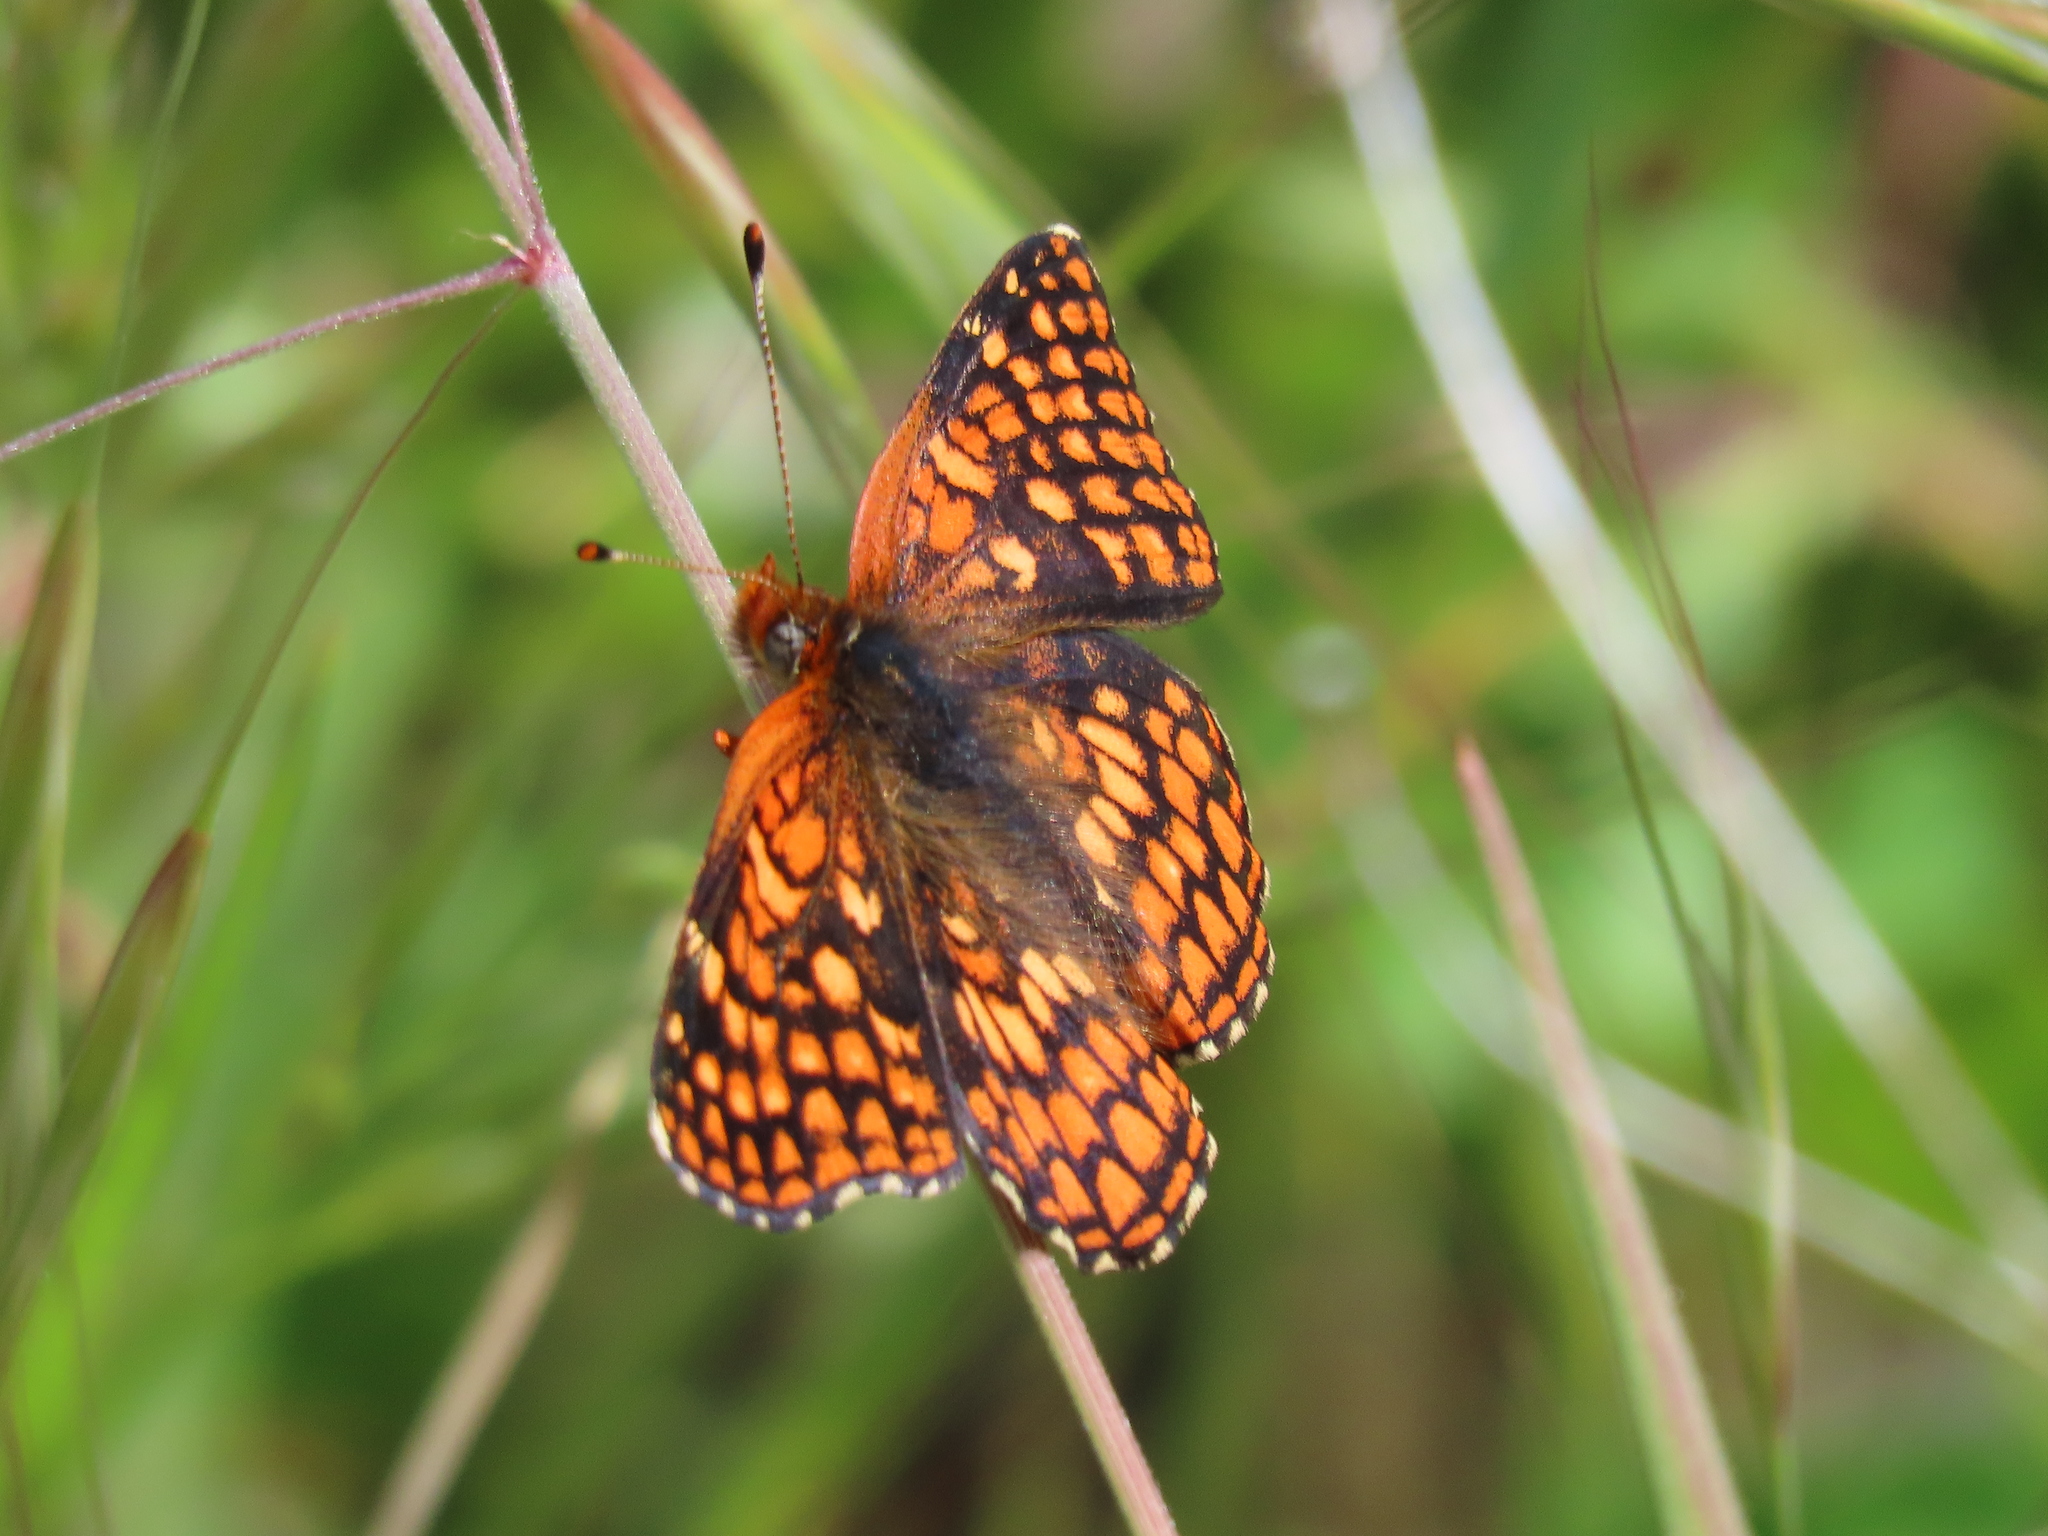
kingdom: Animalia
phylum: Arthropoda
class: Insecta
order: Lepidoptera
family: Nymphalidae
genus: Chlosyne
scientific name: Chlosyne palla
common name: Northern checkerspot
